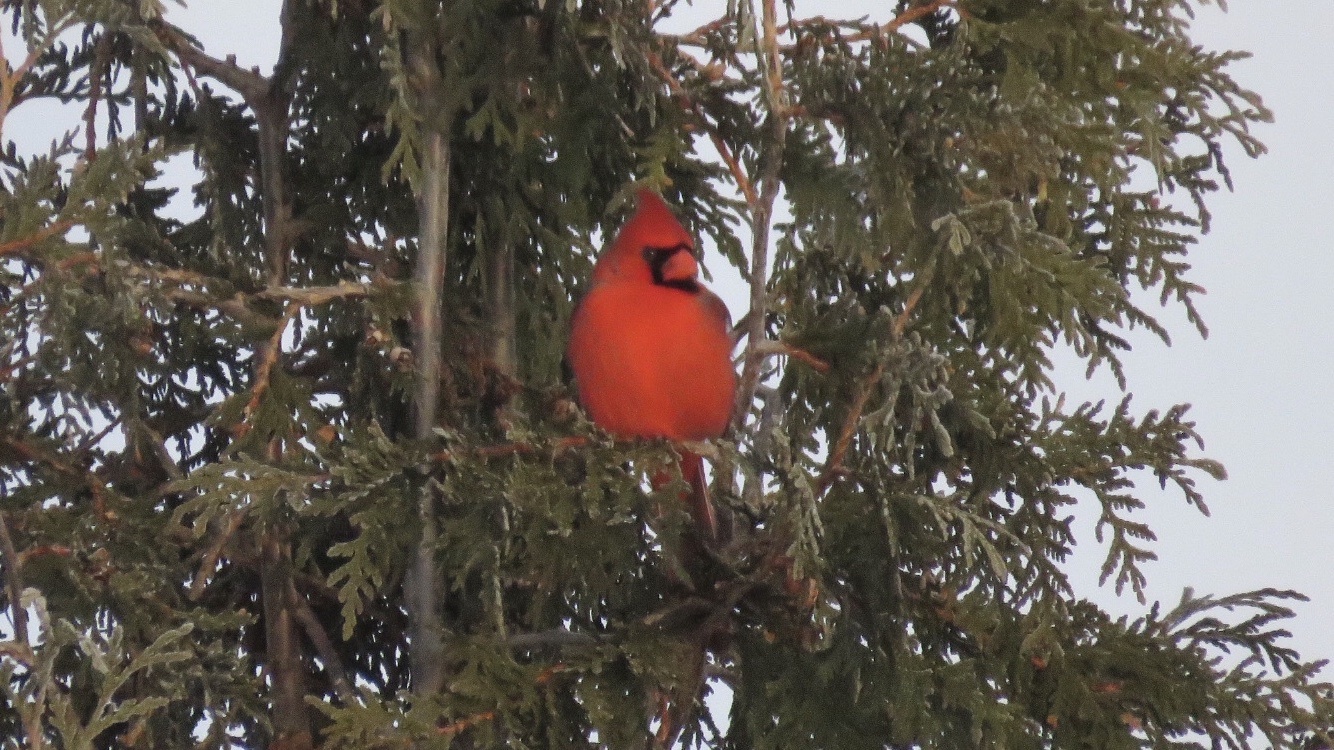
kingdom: Animalia
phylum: Chordata
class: Aves
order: Passeriformes
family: Cardinalidae
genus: Cardinalis
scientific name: Cardinalis cardinalis
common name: Northern cardinal
